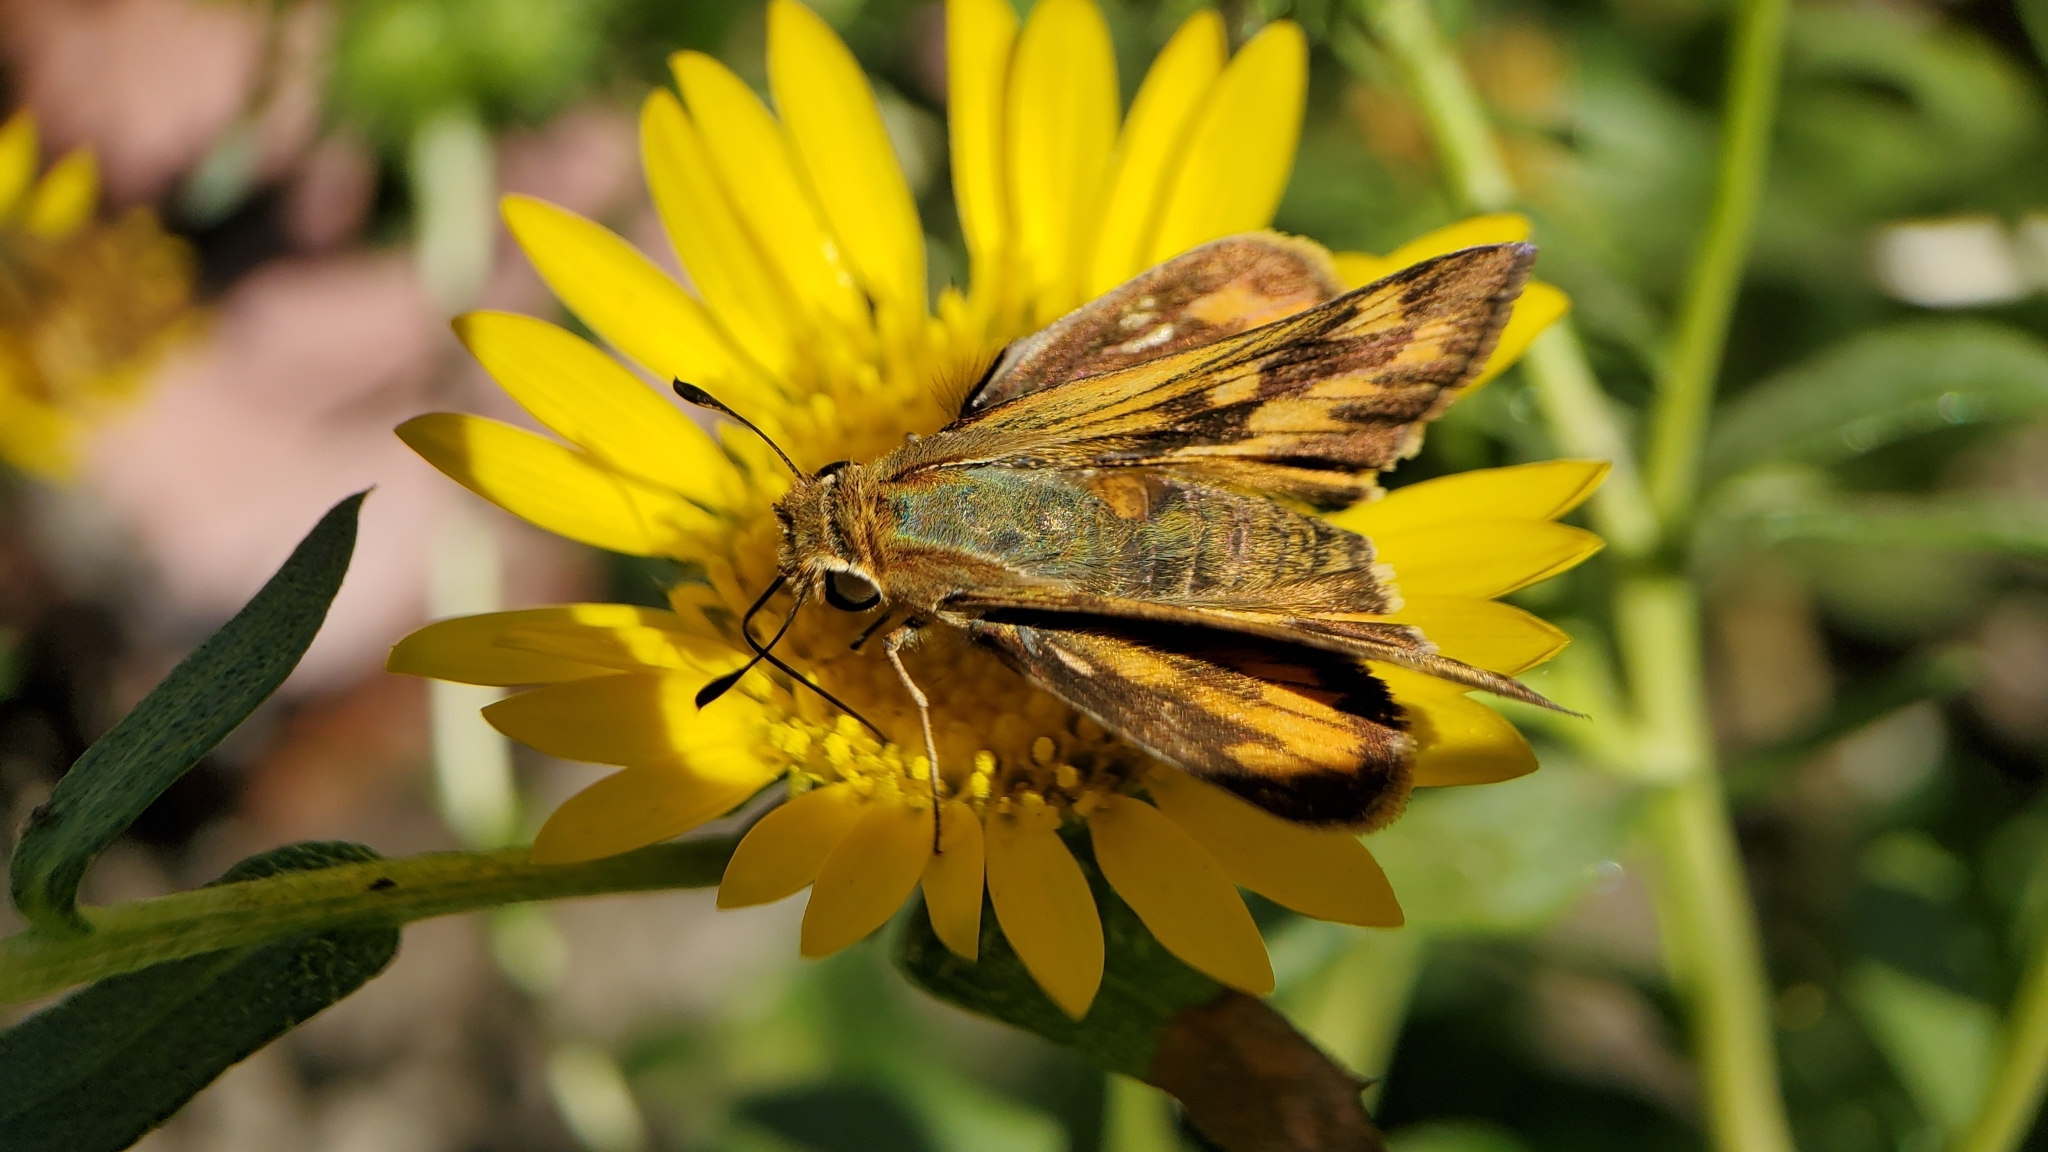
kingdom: Animalia
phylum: Arthropoda
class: Insecta
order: Lepidoptera
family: Hesperiidae
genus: Hylephila
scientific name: Hylephila phyleus
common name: Fiery skipper
